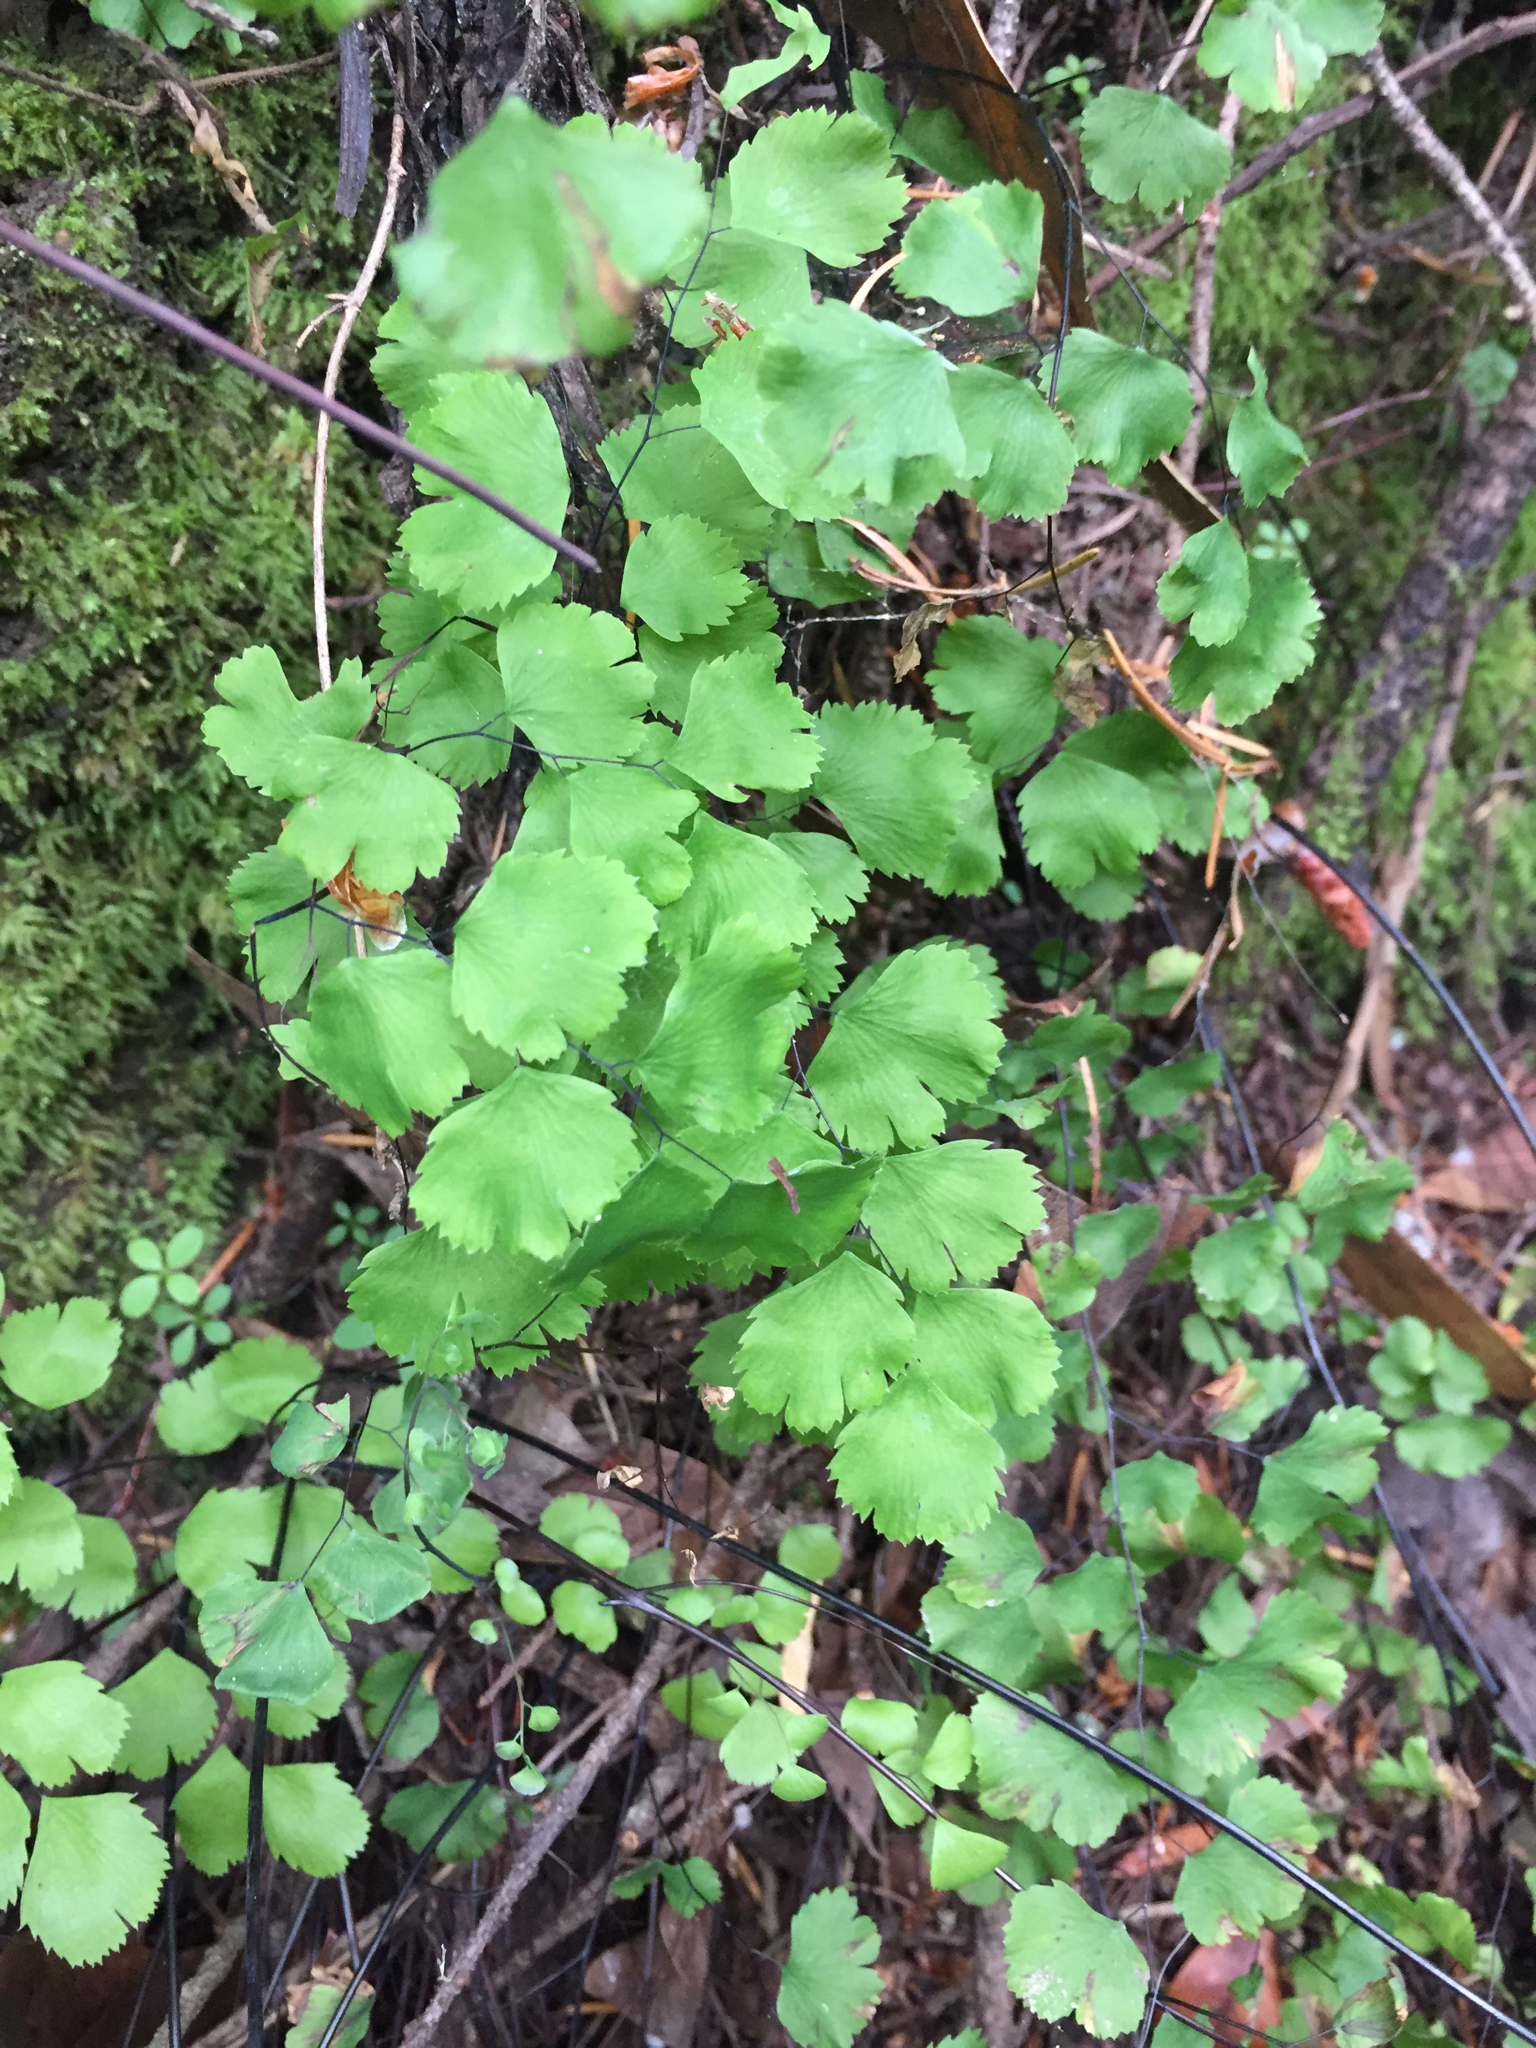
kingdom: Plantae
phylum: Tracheophyta
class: Polypodiopsida
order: Polypodiales
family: Pteridaceae
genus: Adiantum
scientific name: Adiantum jordanii
